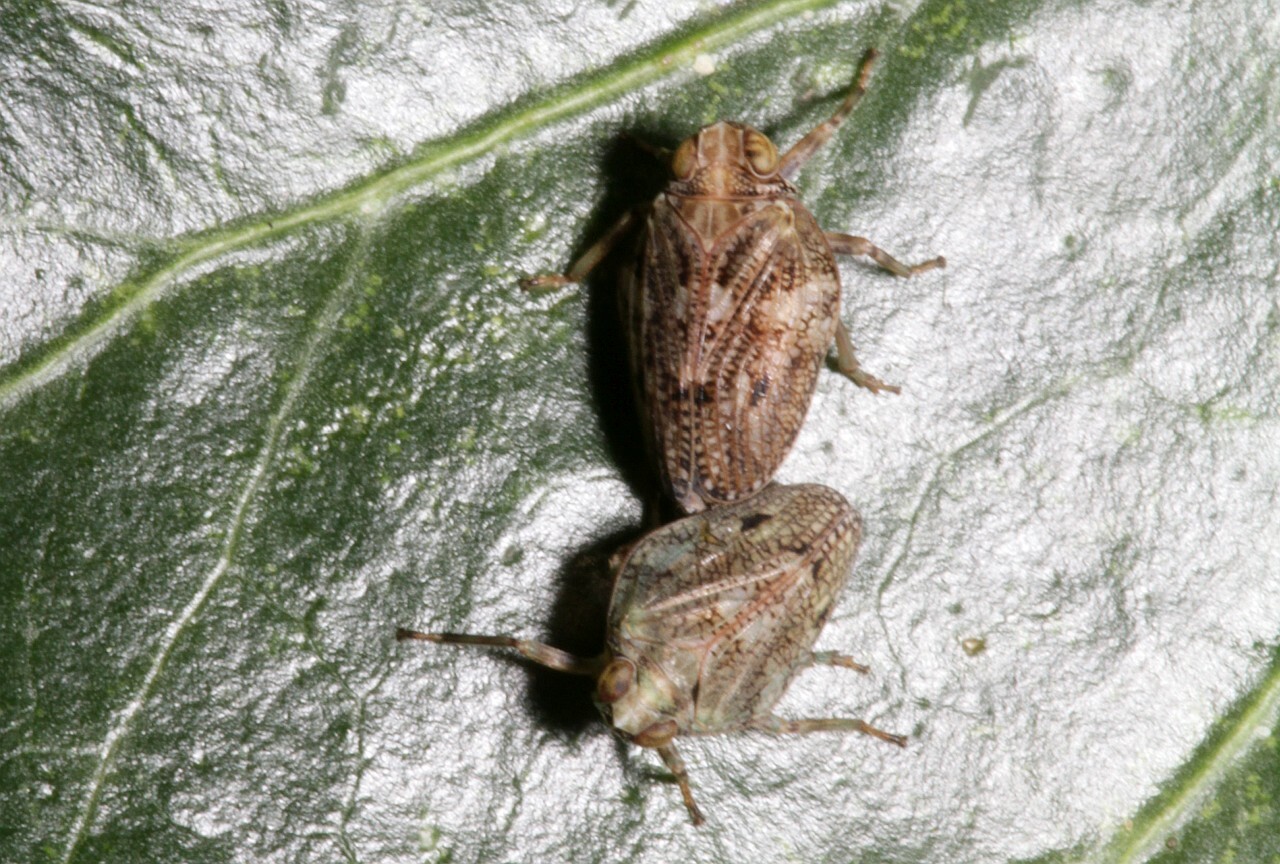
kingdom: Animalia
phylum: Arthropoda
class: Insecta
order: Hemiptera
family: Issidae
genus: Issus
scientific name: Issus coleoptratus
